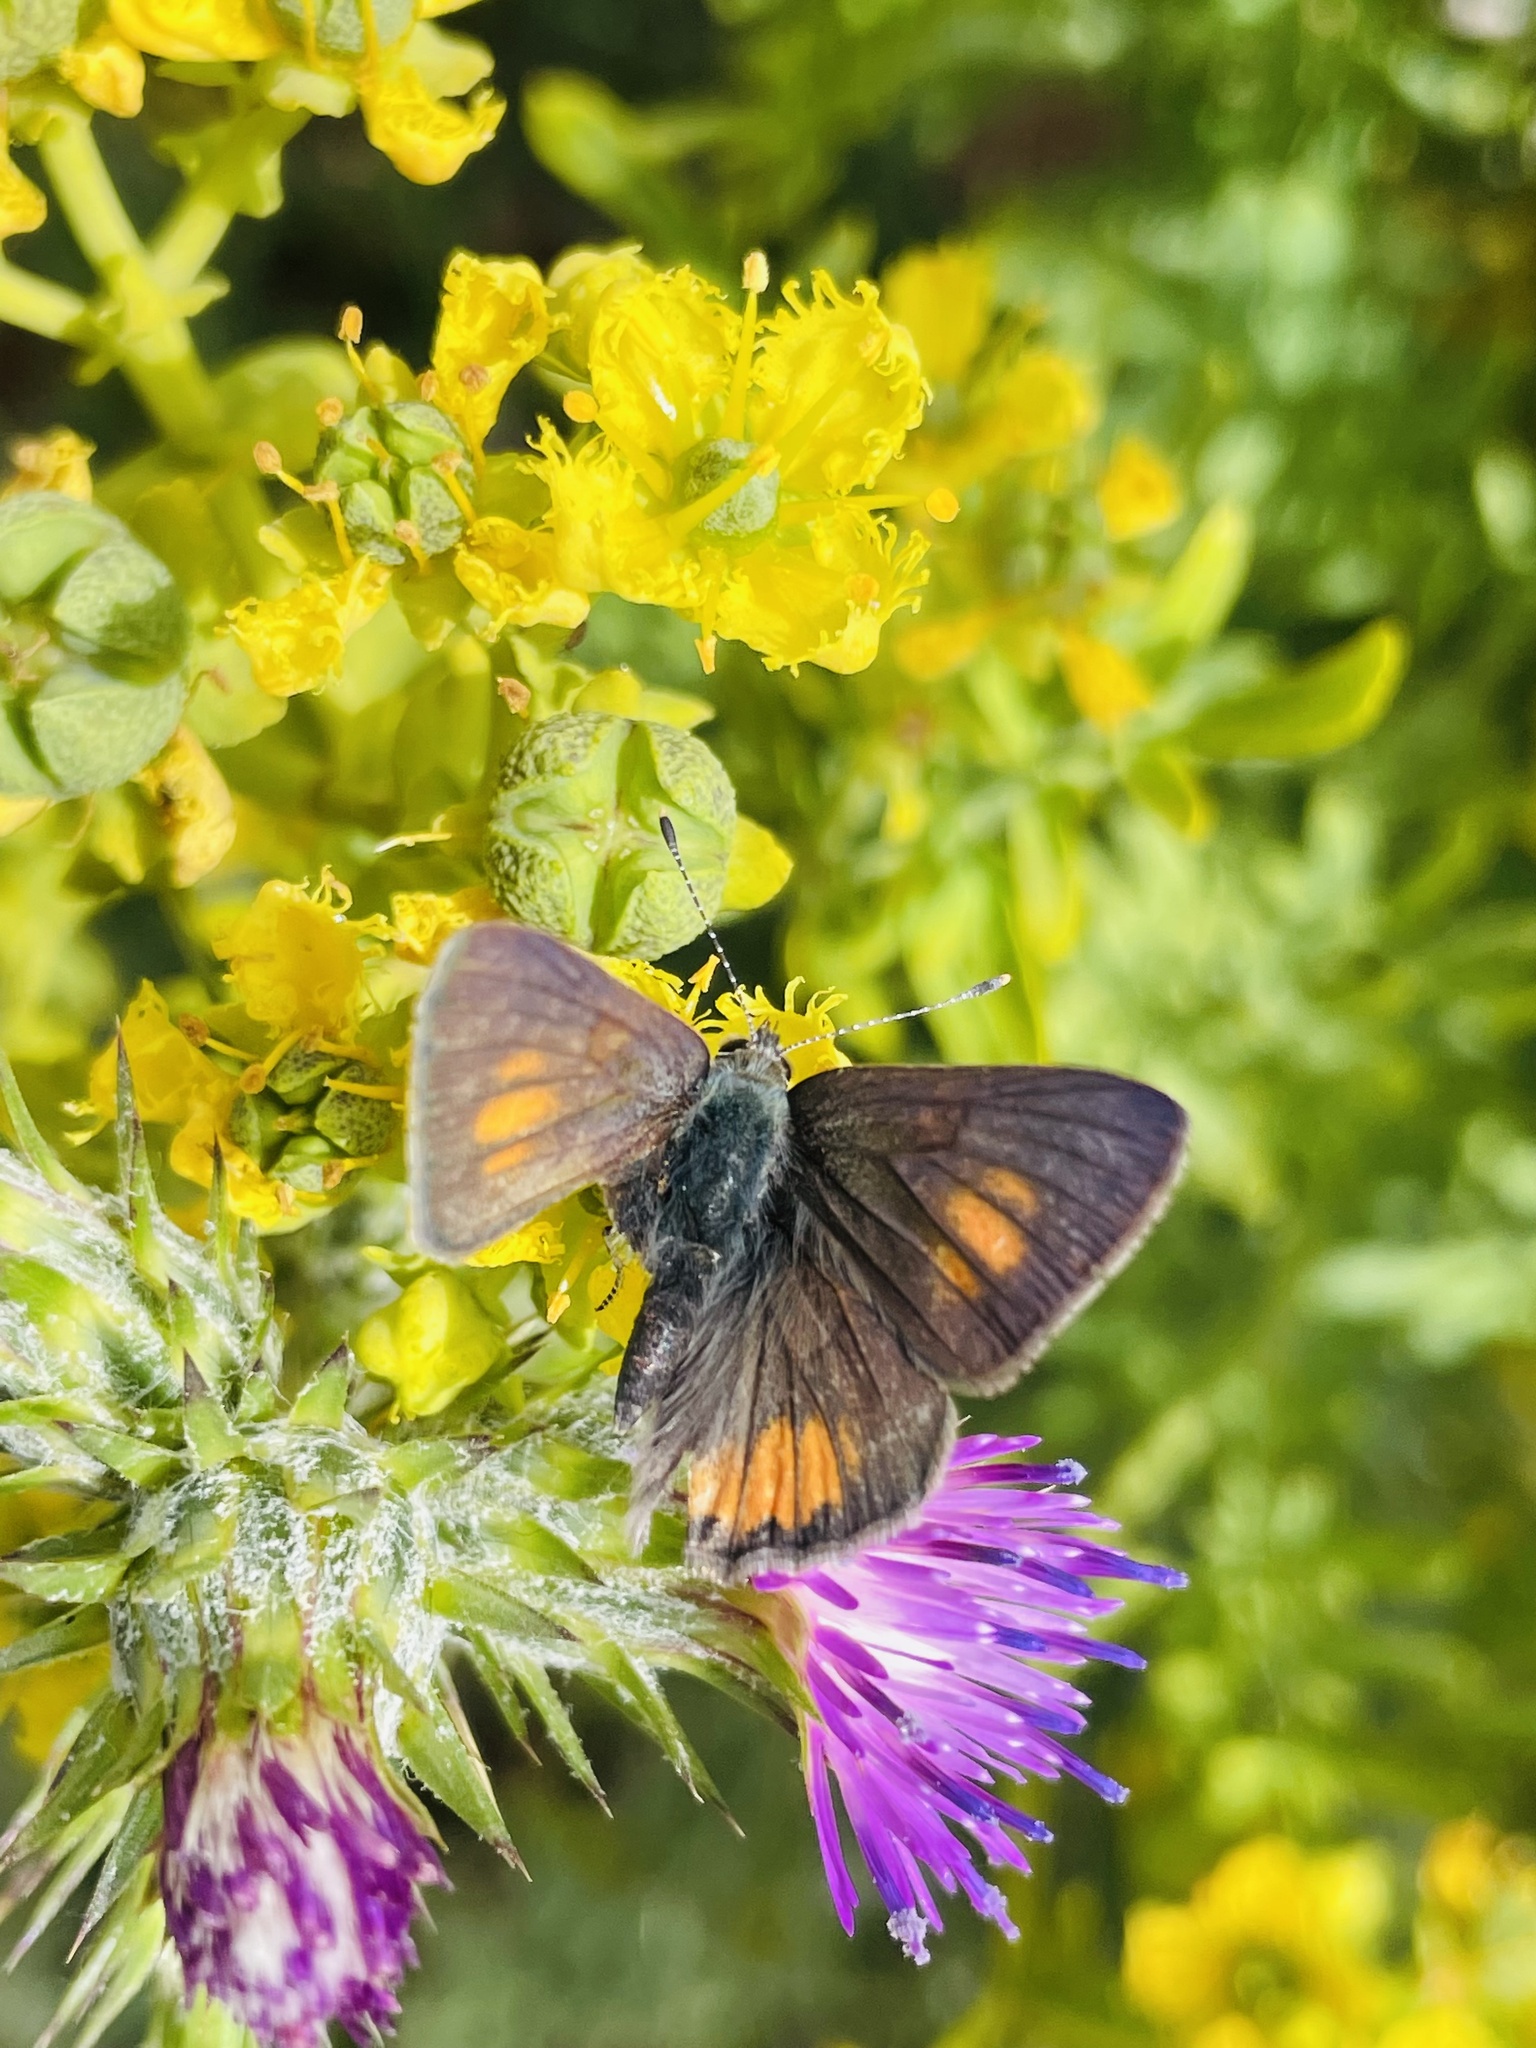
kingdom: Animalia
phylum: Arthropoda
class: Insecta
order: Lepidoptera
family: Lycaenidae
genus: Strymon
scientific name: Strymon
